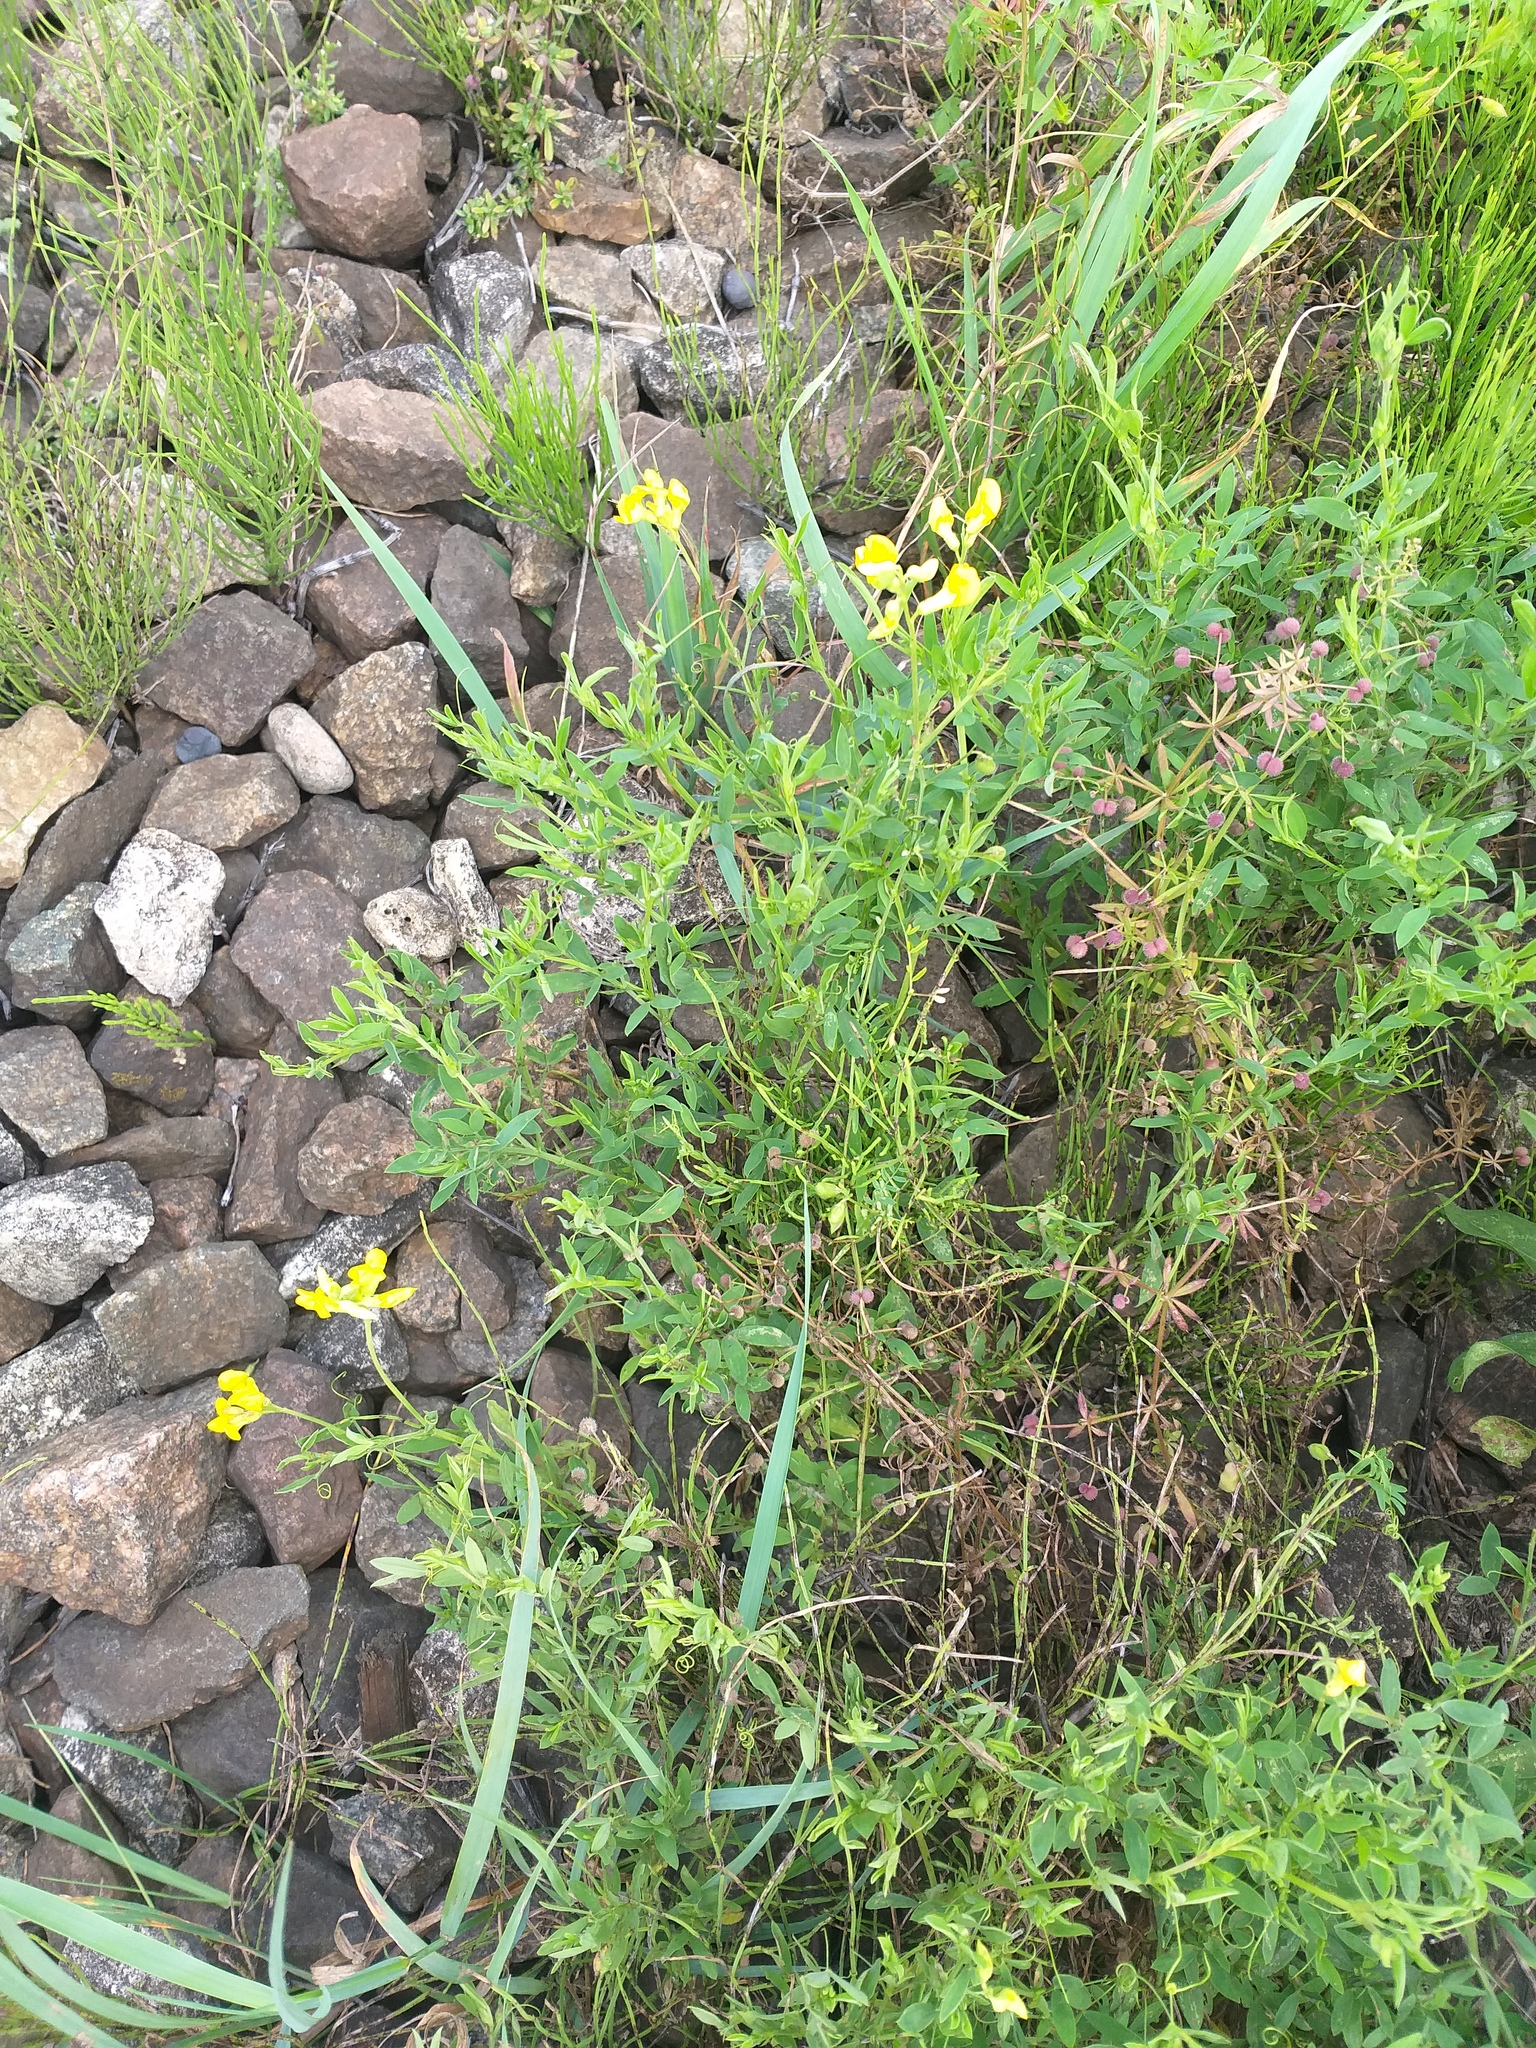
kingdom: Plantae
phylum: Tracheophyta
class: Magnoliopsida
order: Fabales
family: Fabaceae
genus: Lathyrus
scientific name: Lathyrus pratensis
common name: Meadow vetchling
